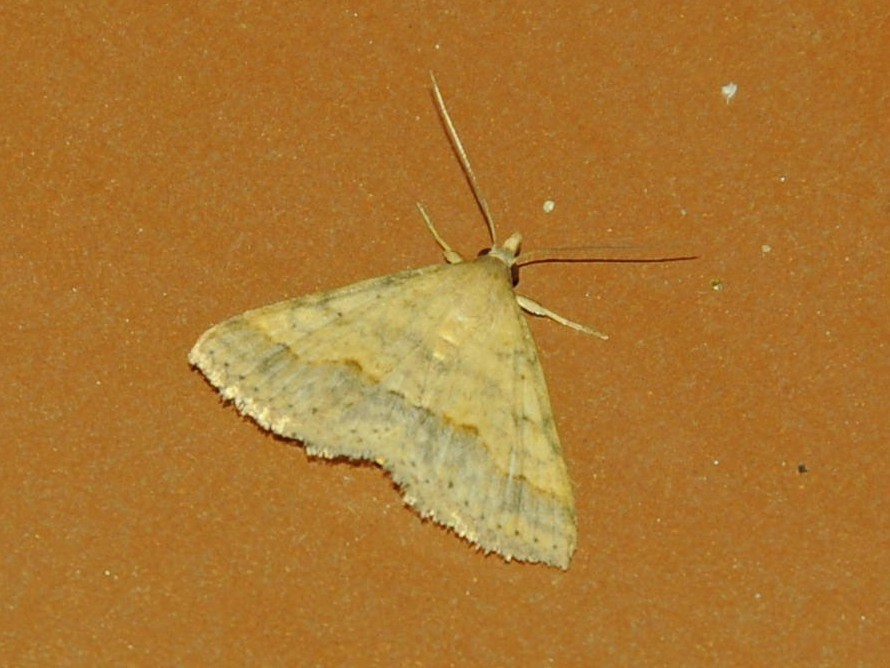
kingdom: Animalia
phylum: Arthropoda
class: Insecta
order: Lepidoptera
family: Erebidae
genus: Gesonia
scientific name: Gesonia obeditalis
